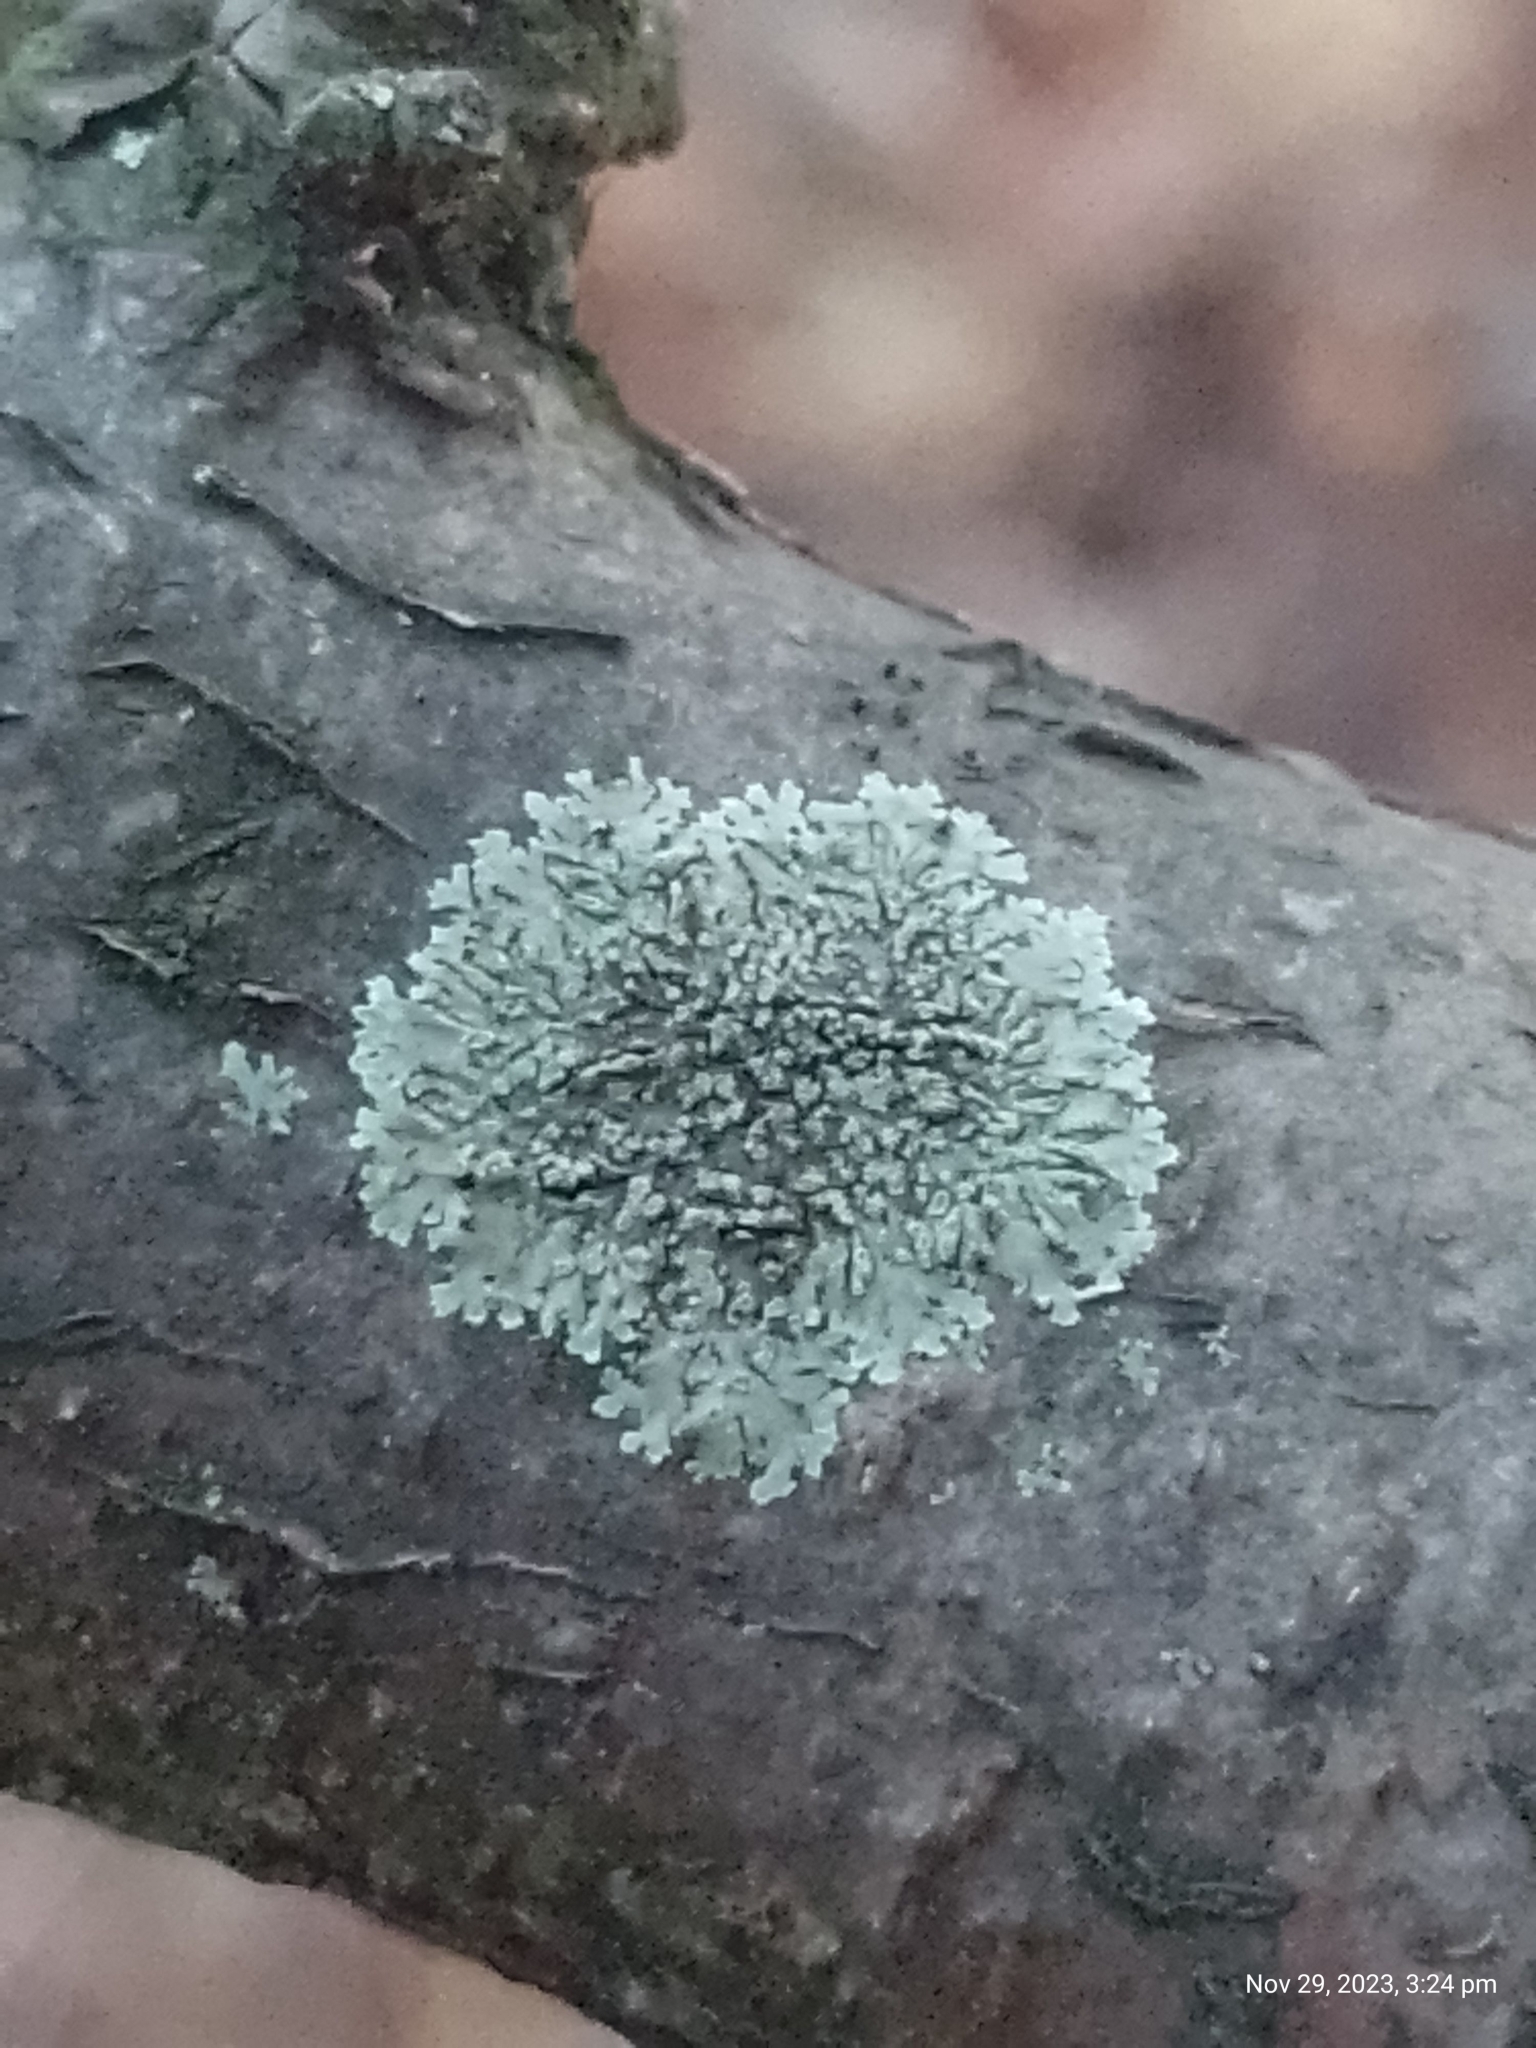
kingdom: Fungi
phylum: Ascomycota
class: Lecanoromycetes
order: Caliciales
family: Physciaceae
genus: Hyperphyscia
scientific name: Hyperphyscia adglutinata
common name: Grainy shadow-crust lichen
